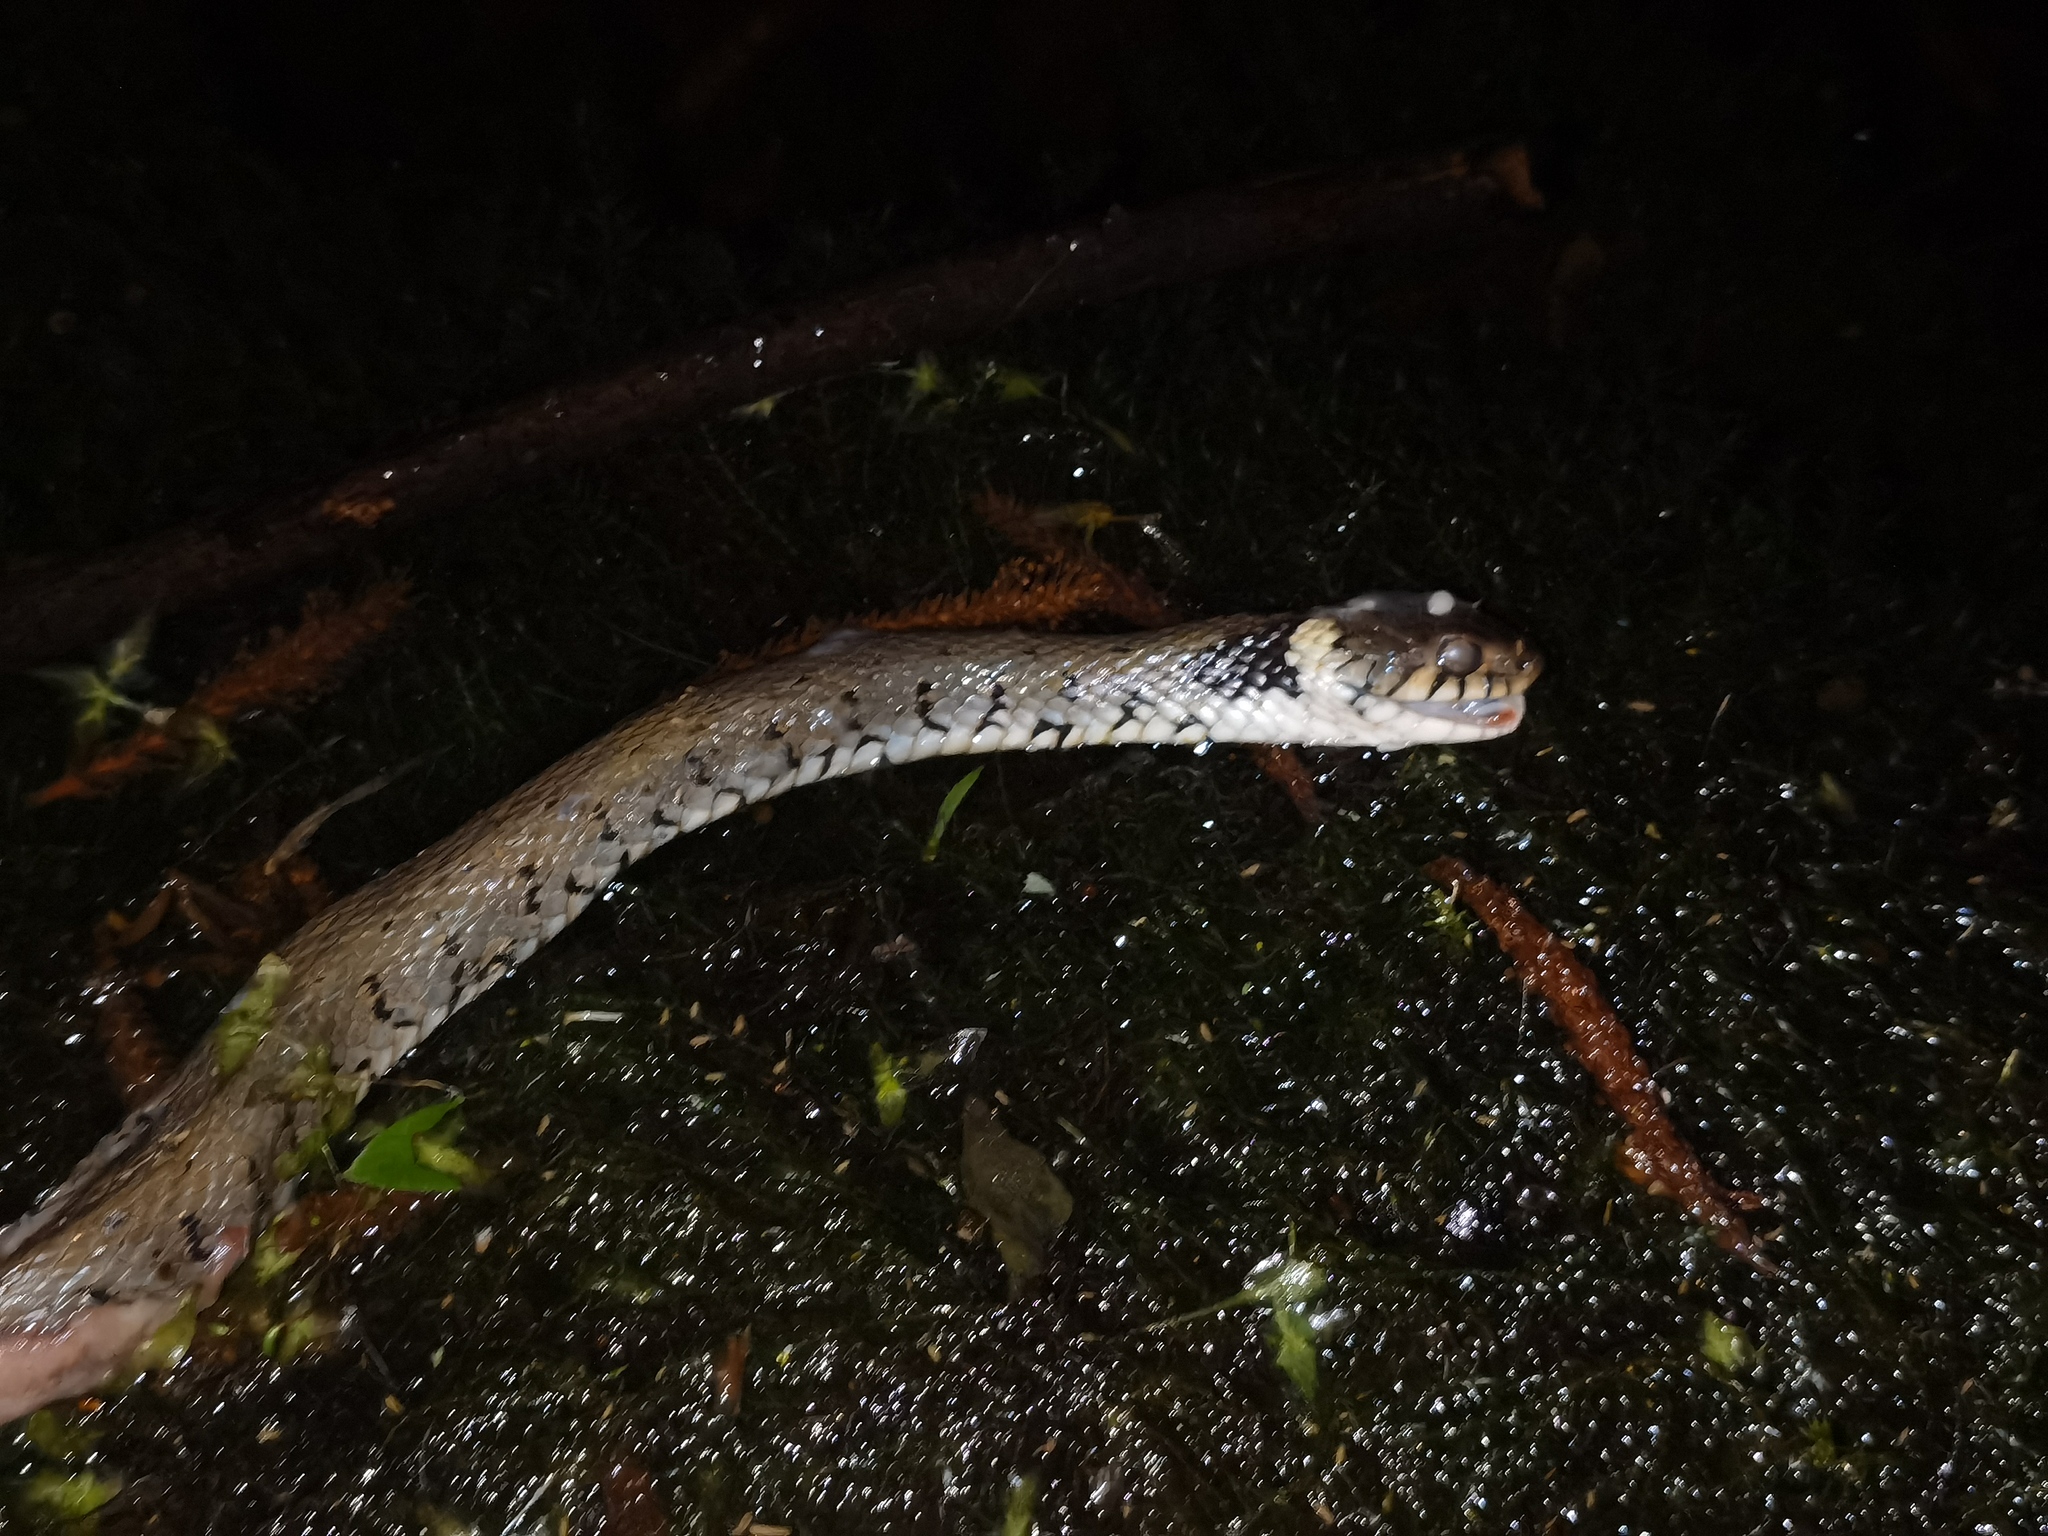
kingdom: Animalia
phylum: Chordata
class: Squamata
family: Colubridae
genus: Natrix
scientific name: Natrix helvetica
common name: Banded grass snake
